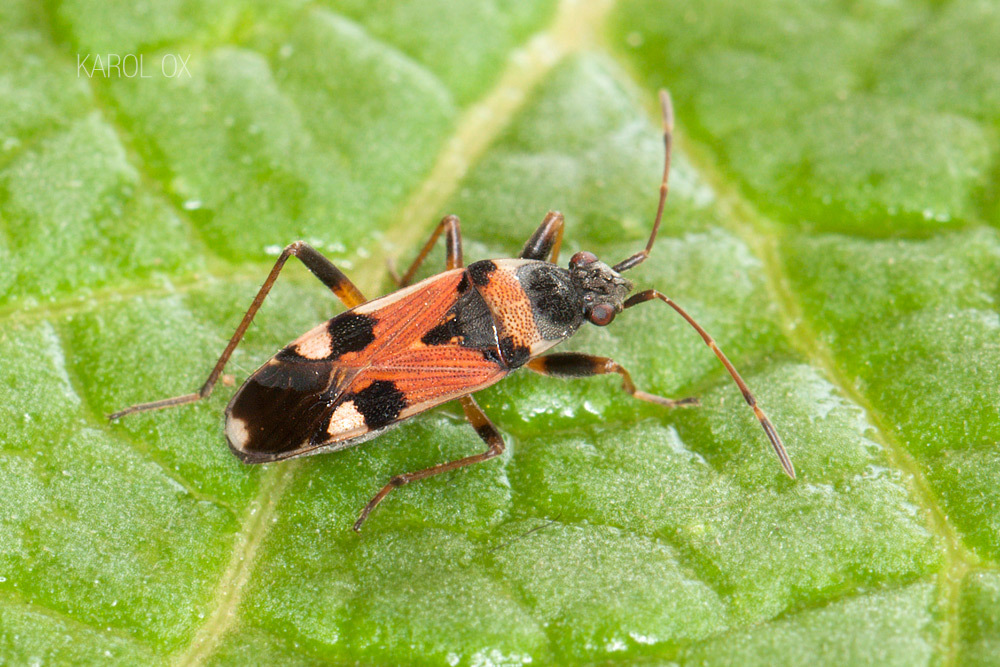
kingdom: Animalia
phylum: Arthropoda
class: Insecta
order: Hemiptera
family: Rhyparochromidae
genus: Beosus
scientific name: Beosus quadripunctatus
